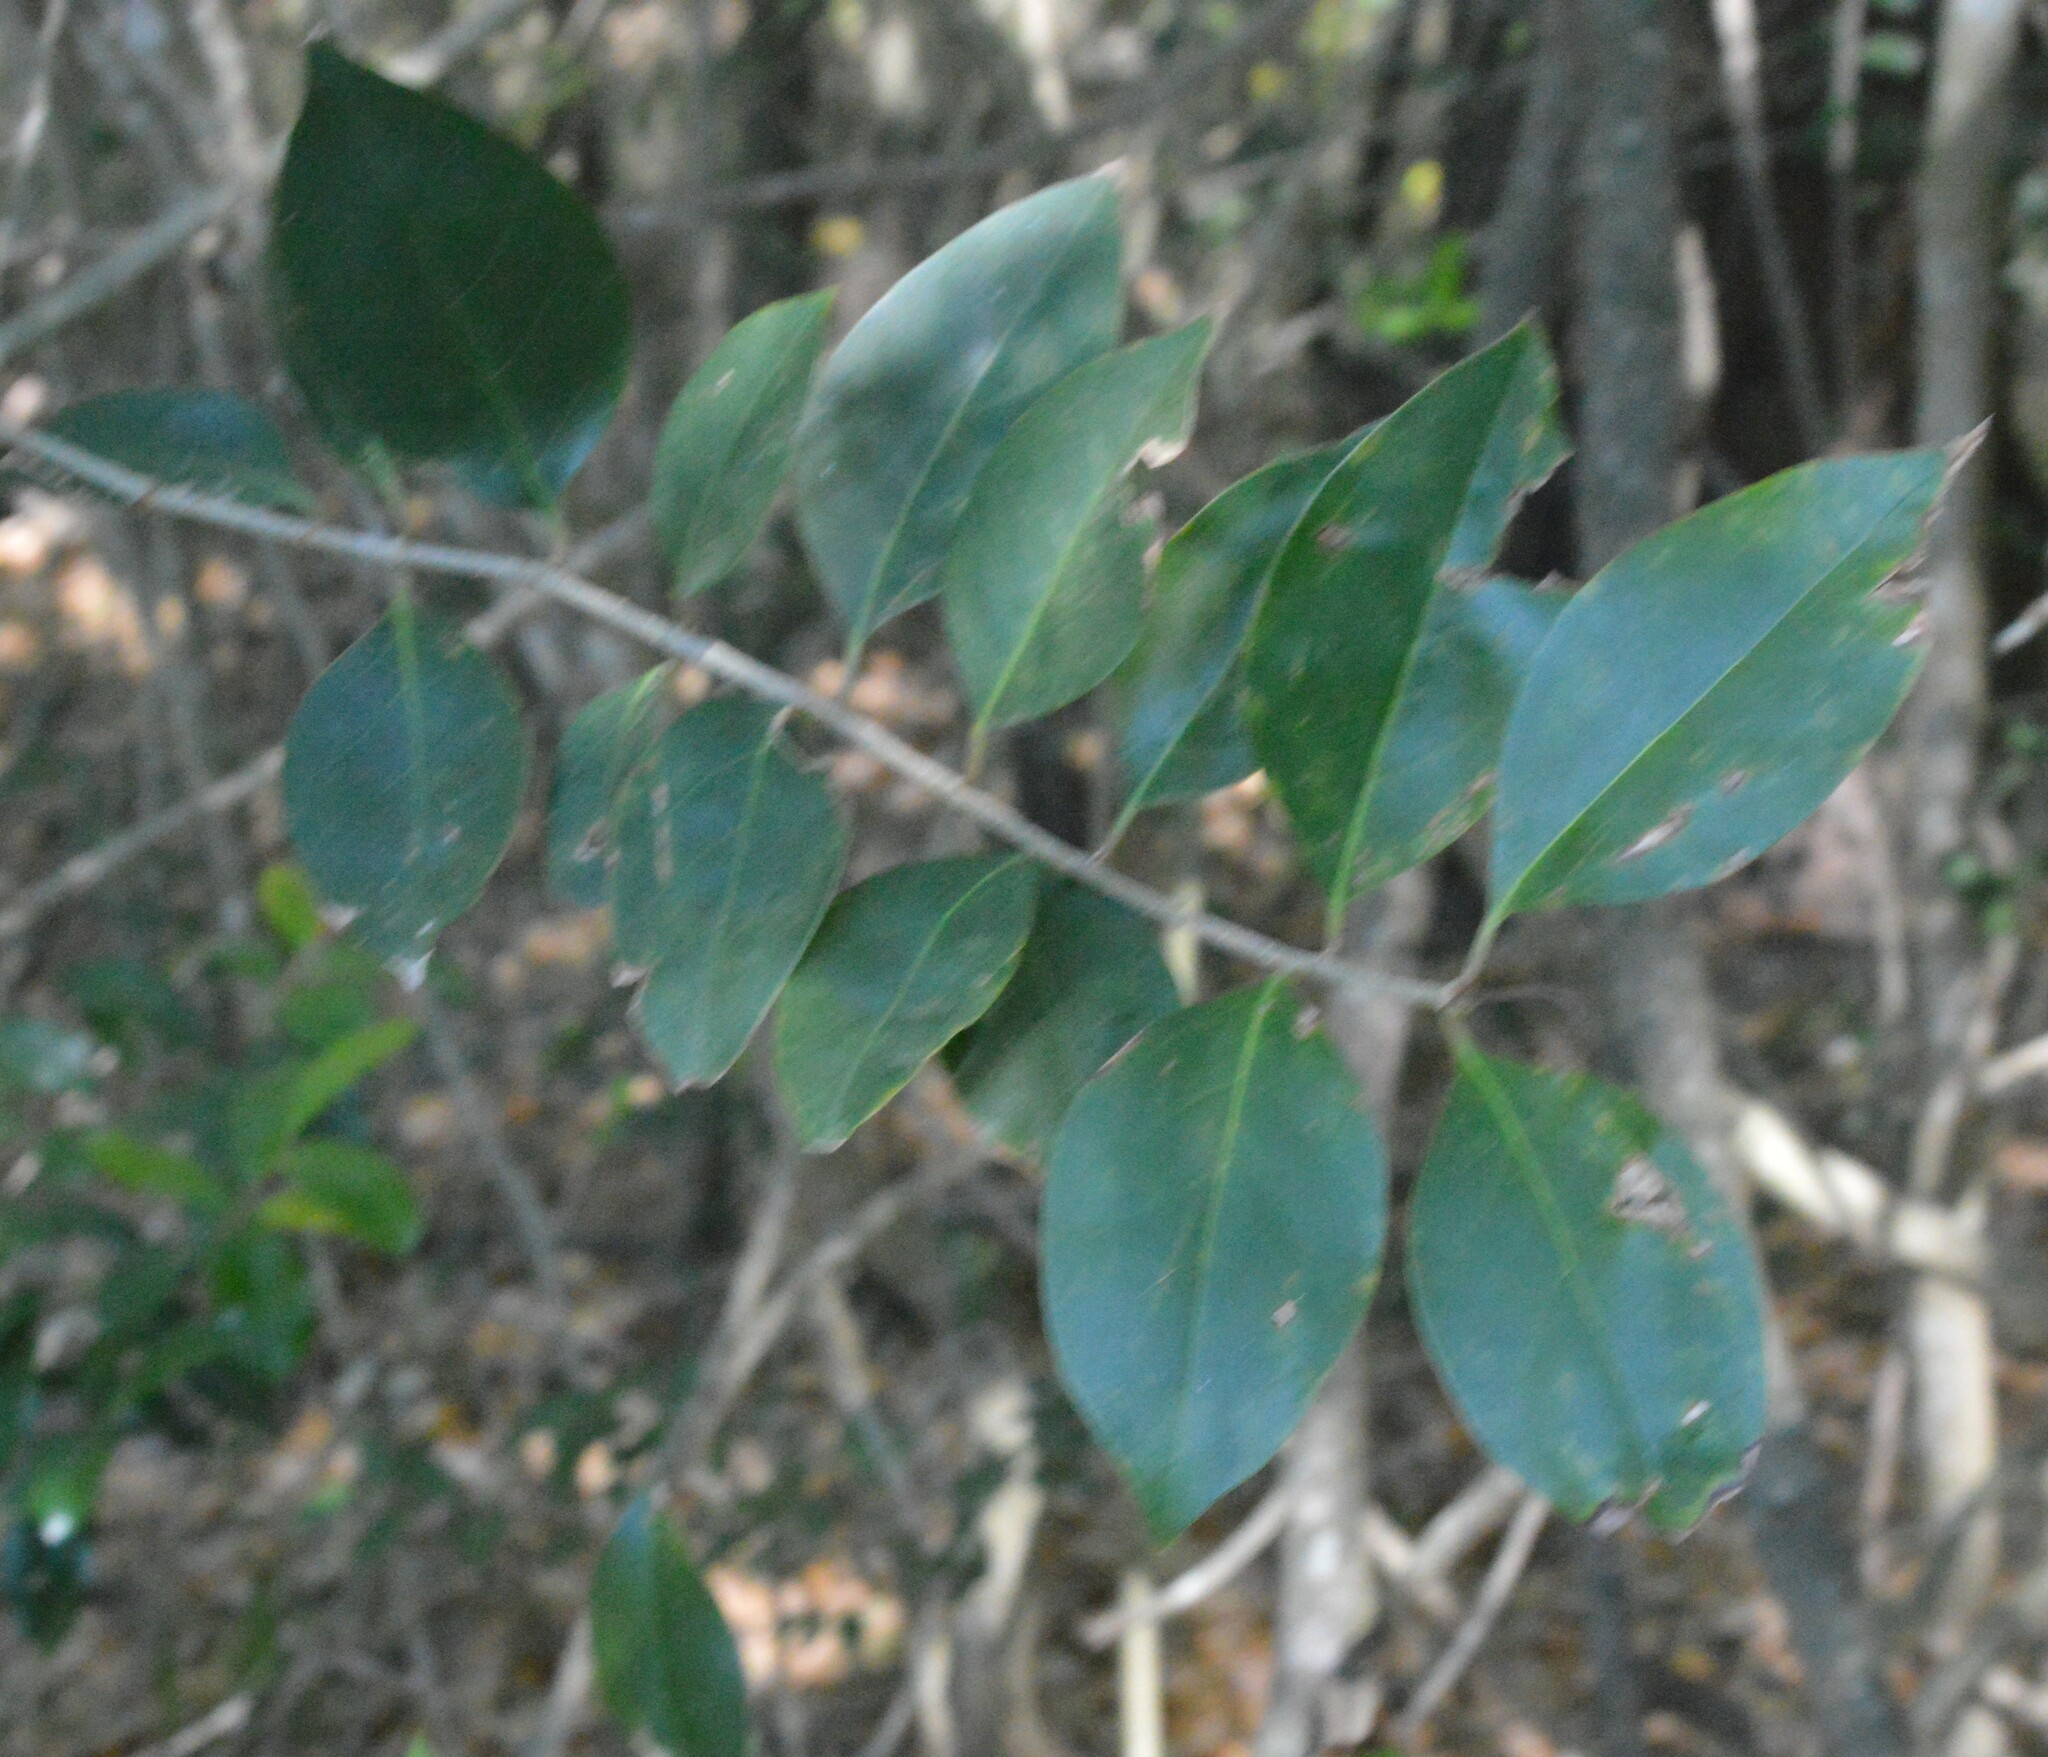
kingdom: Plantae
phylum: Tracheophyta
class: Magnoliopsida
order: Lamiales
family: Oleaceae
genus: Ligustrum
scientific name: Ligustrum lucidum
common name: Glossy privet
